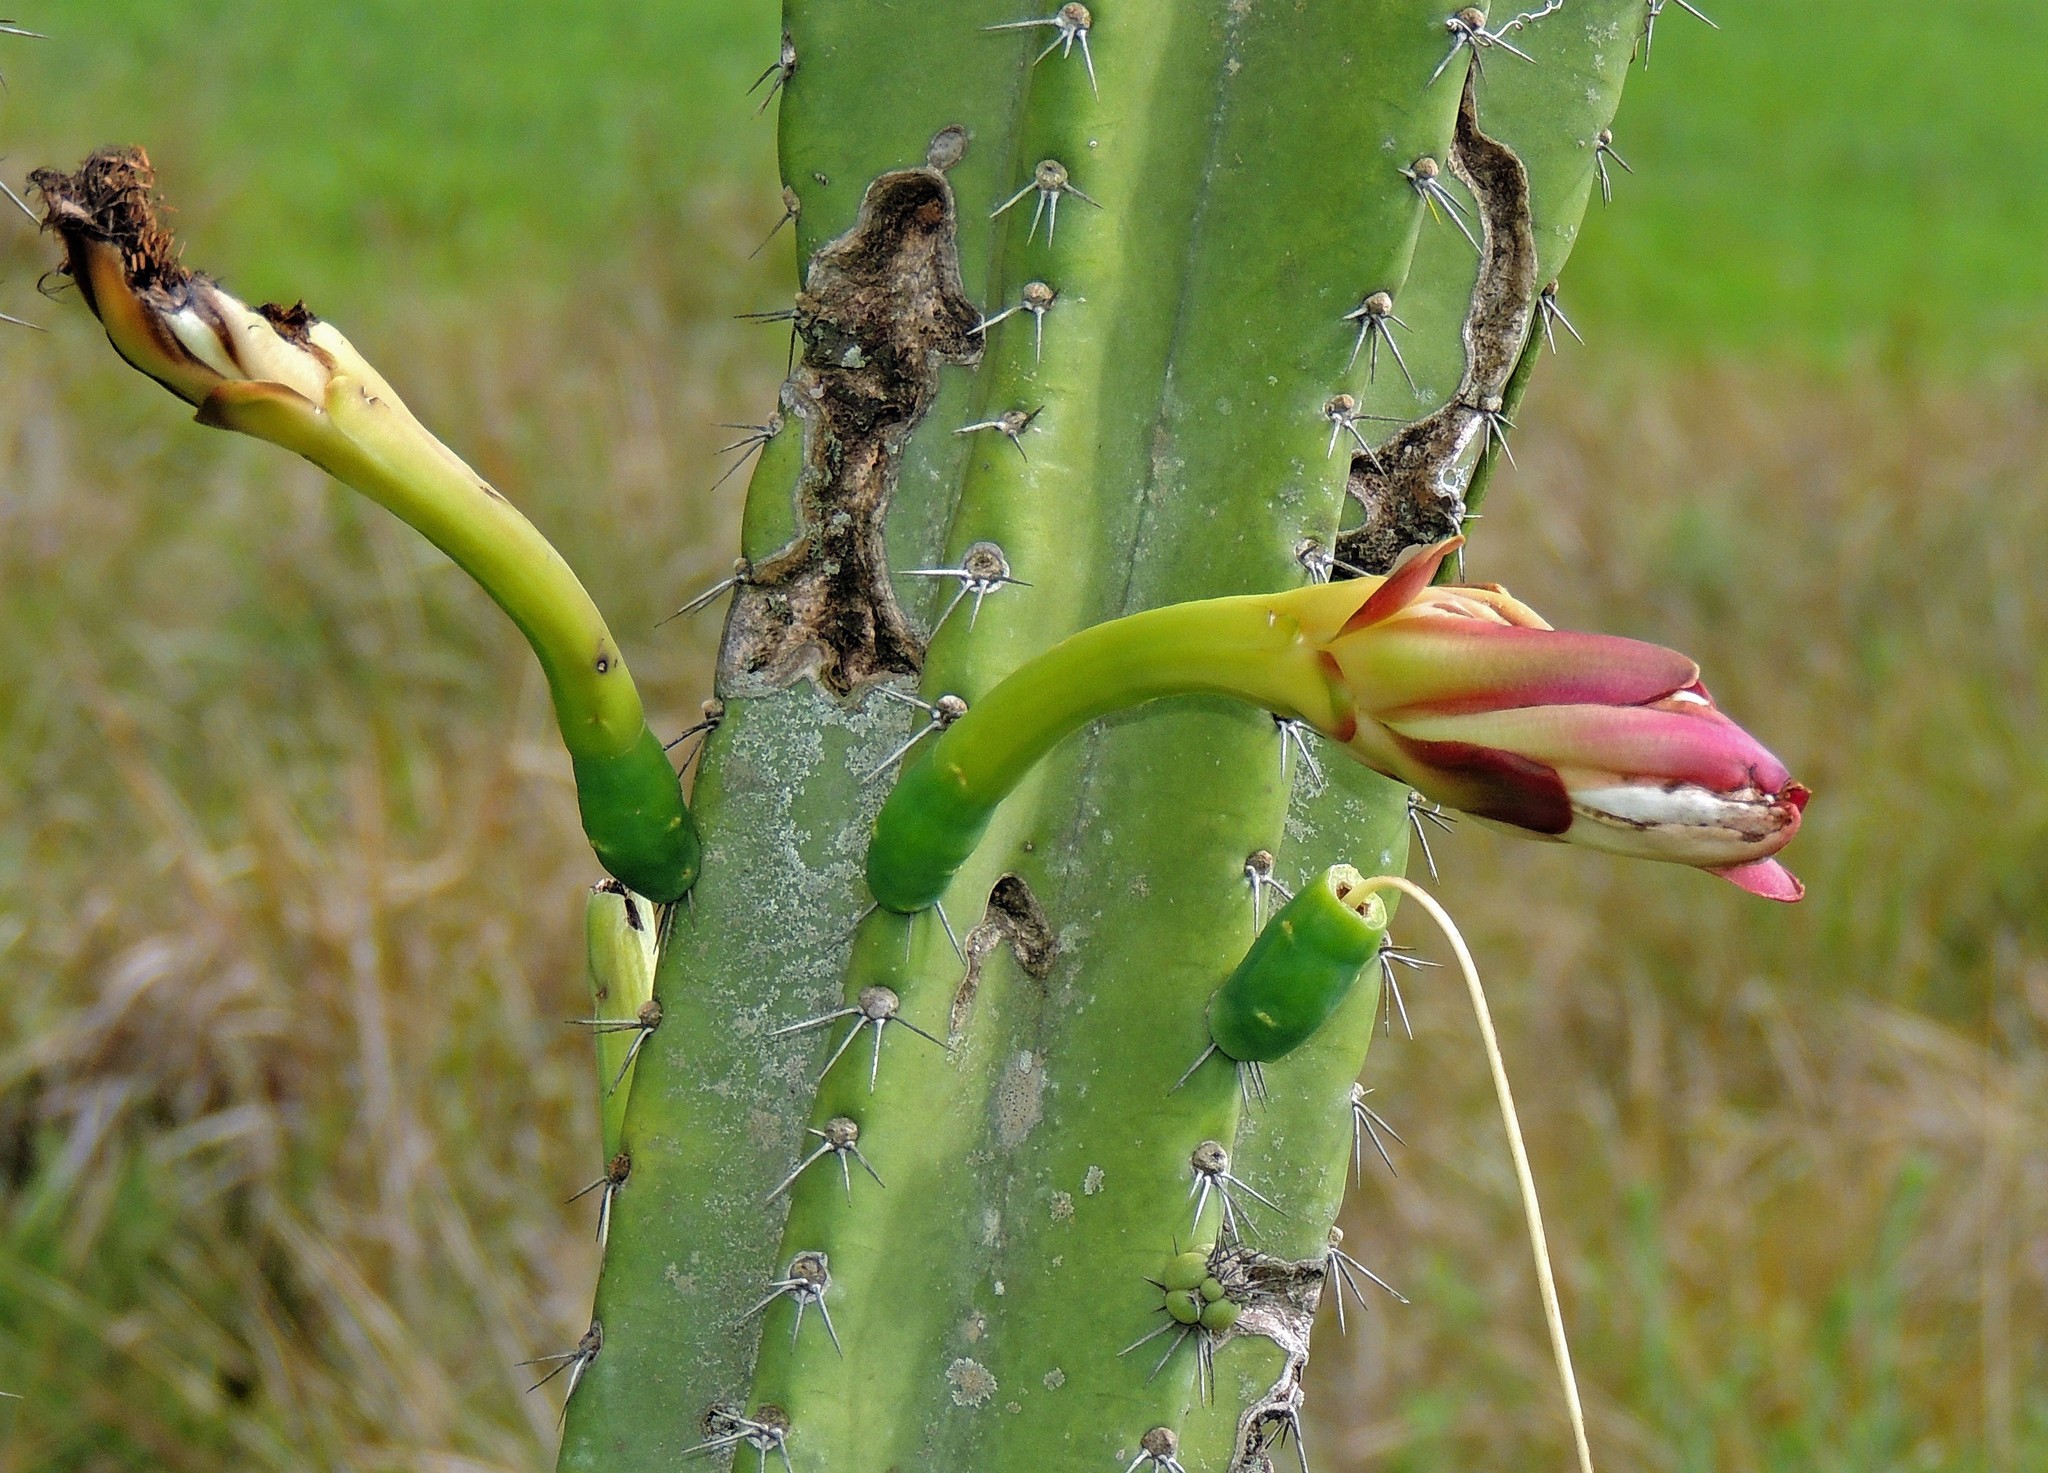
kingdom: Plantae
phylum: Tracheophyta
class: Magnoliopsida
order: Caryophyllales
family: Cactaceae
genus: Cereus
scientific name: Cereus stenogonus
